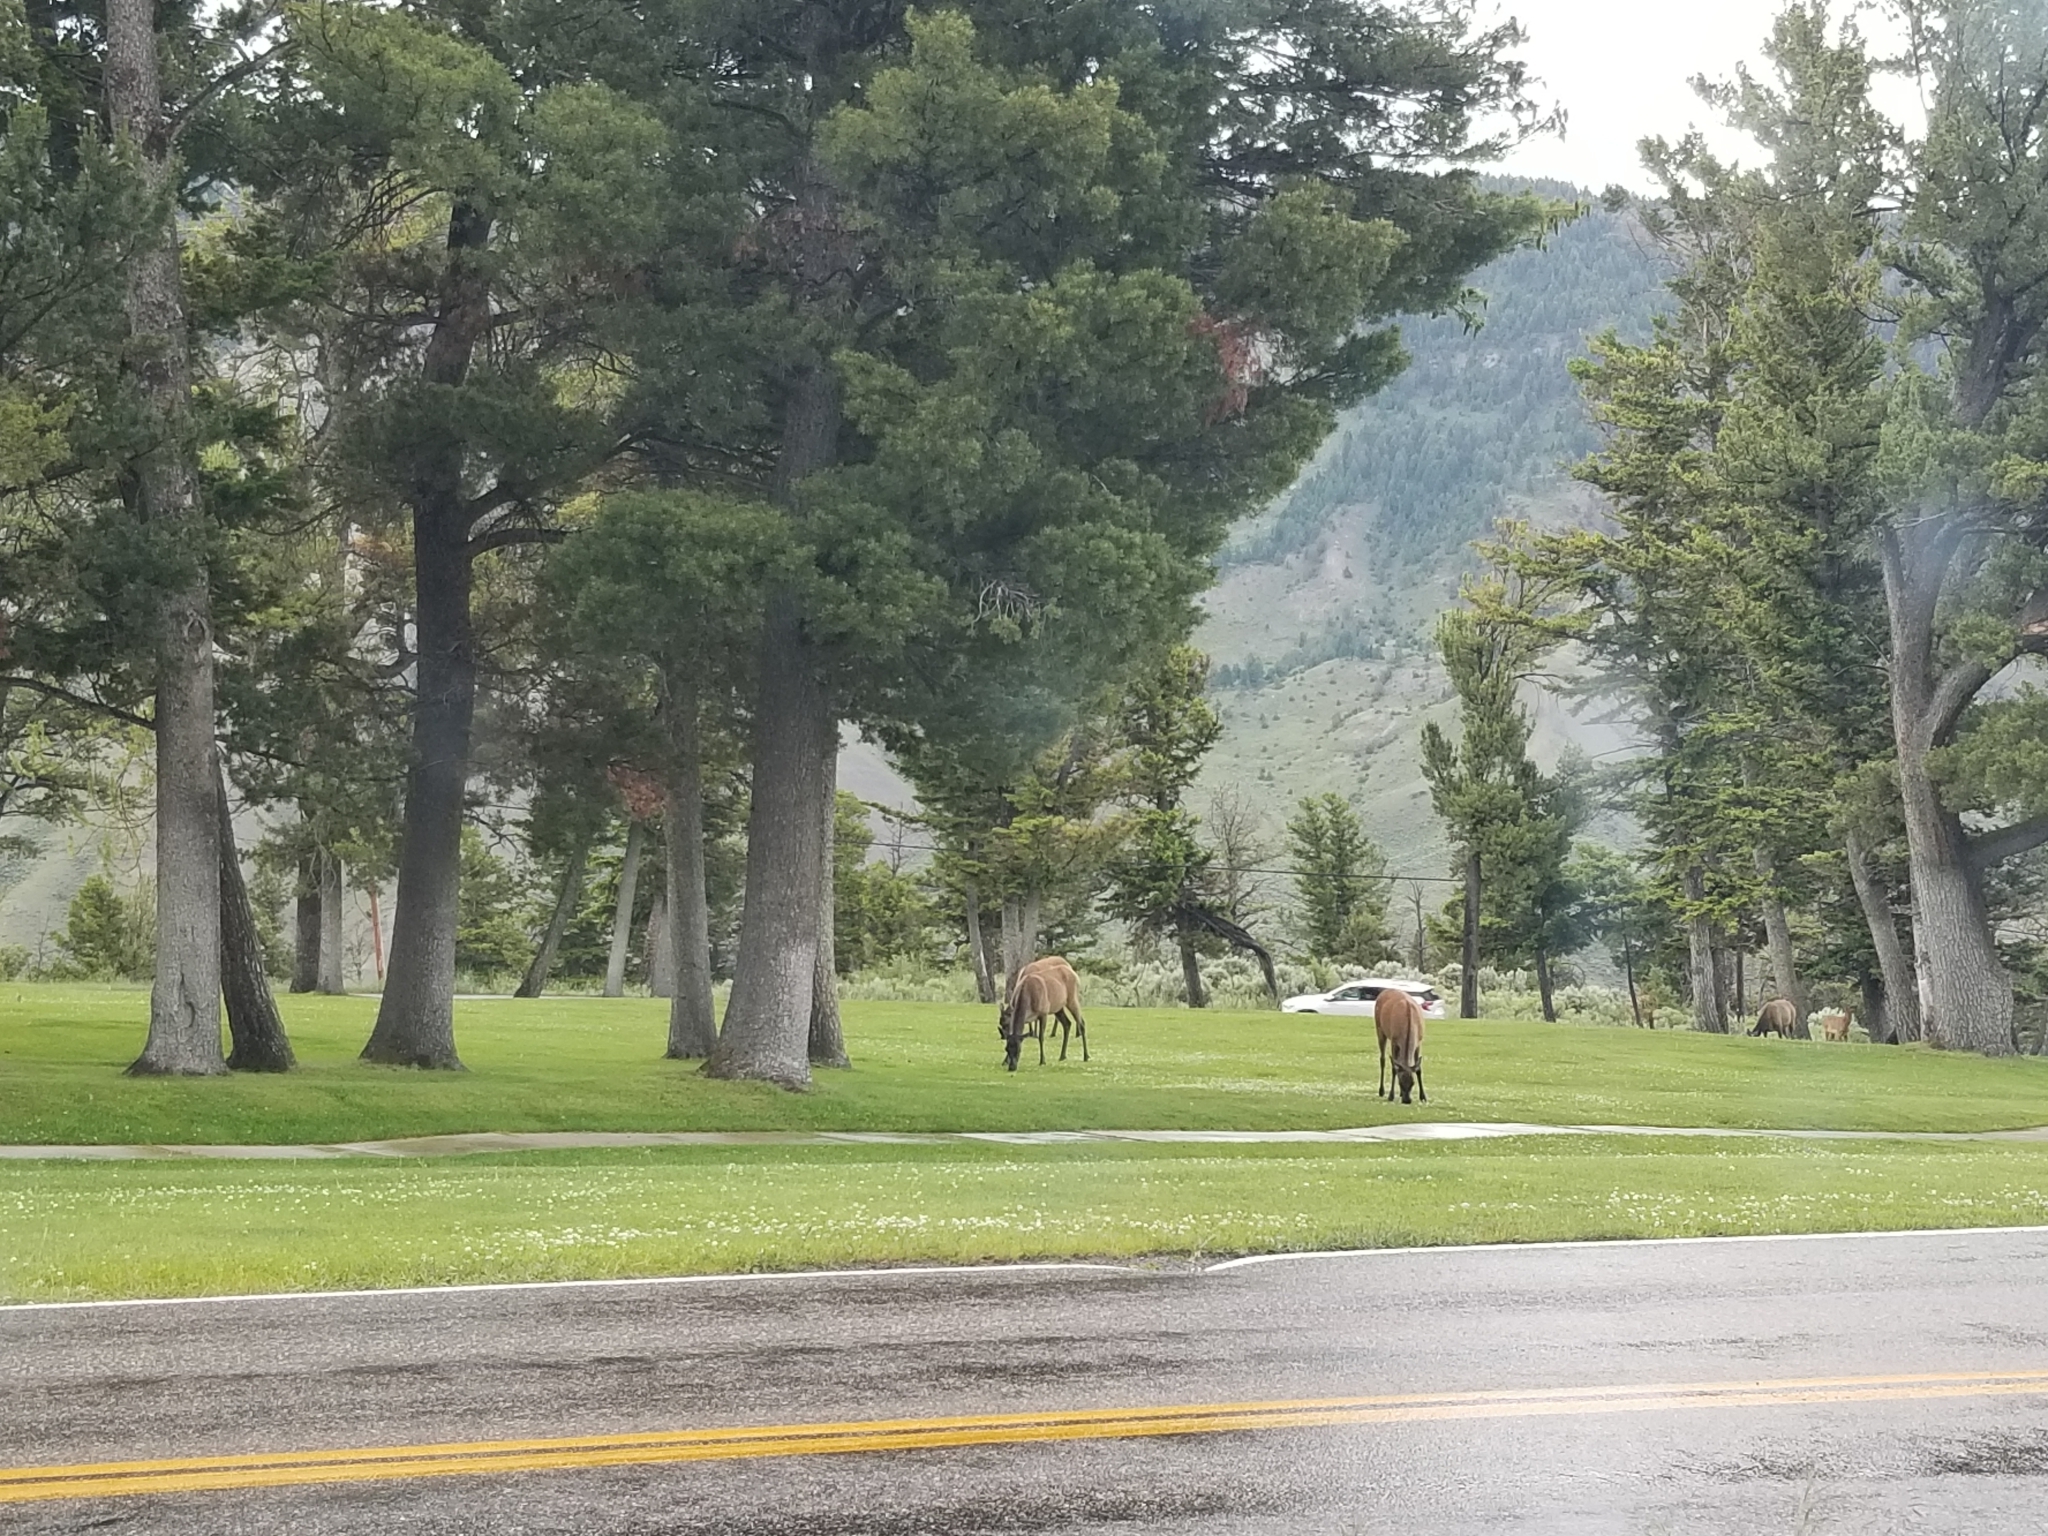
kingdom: Animalia
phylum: Chordata
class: Mammalia
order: Artiodactyla
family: Cervidae
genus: Cervus
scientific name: Cervus elaphus
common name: Red deer
